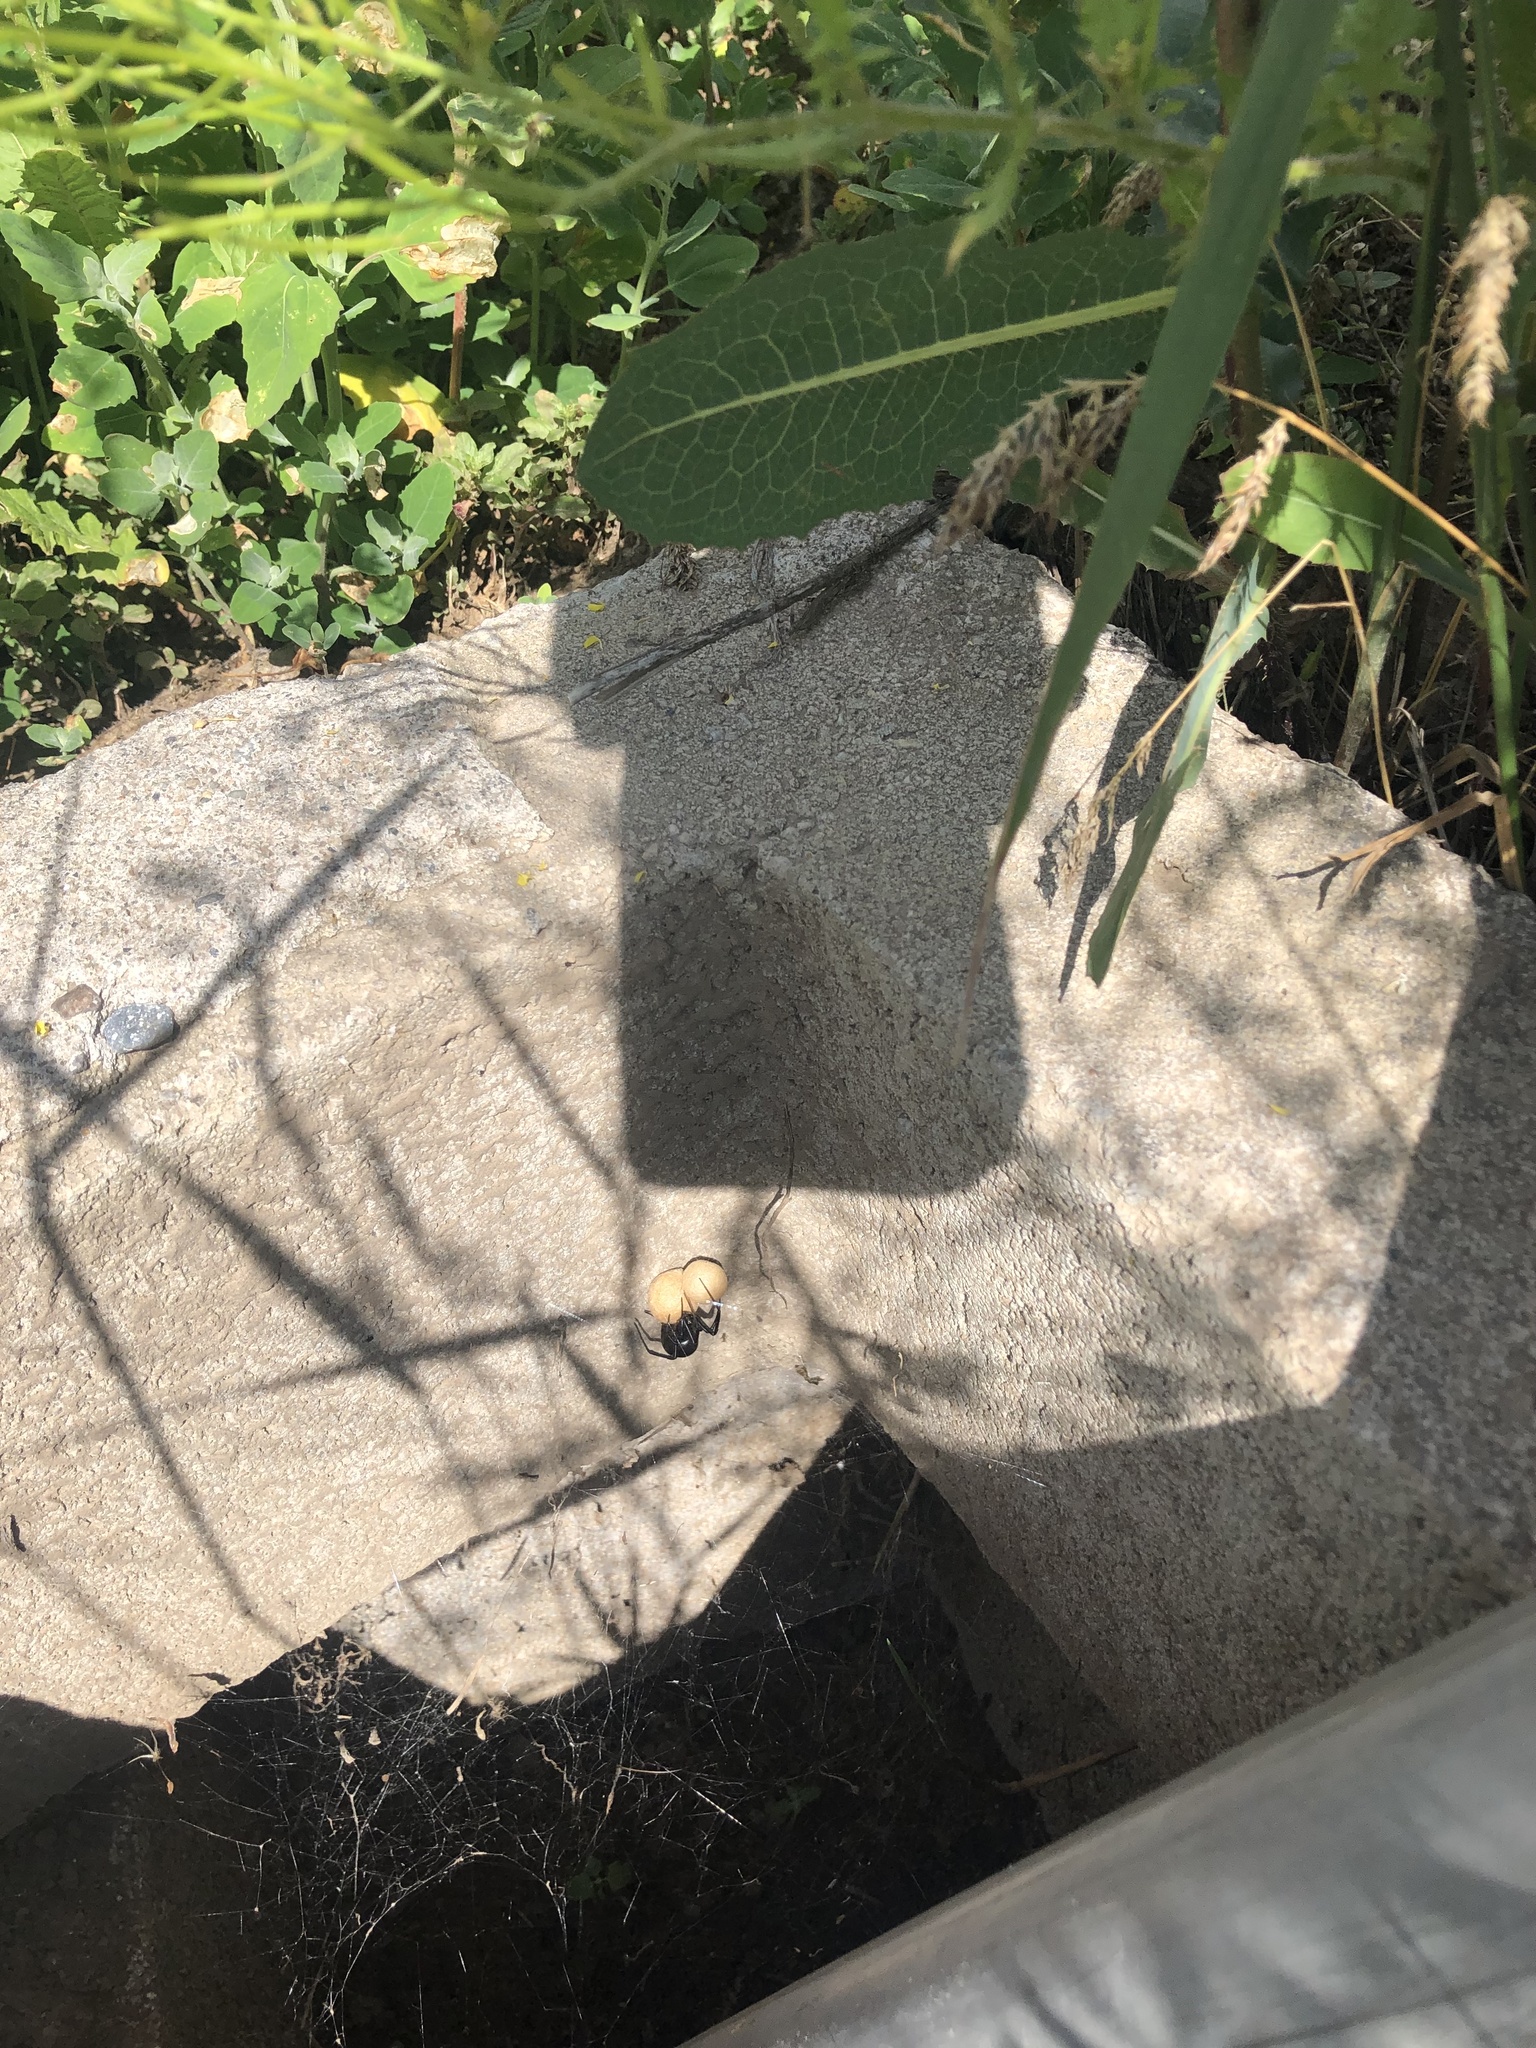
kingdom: Animalia
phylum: Arthropoda
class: Arachnida
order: Araneae
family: Theridiidae
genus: Latrodectus
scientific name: Latrodectus hesperus
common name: Western black widow
